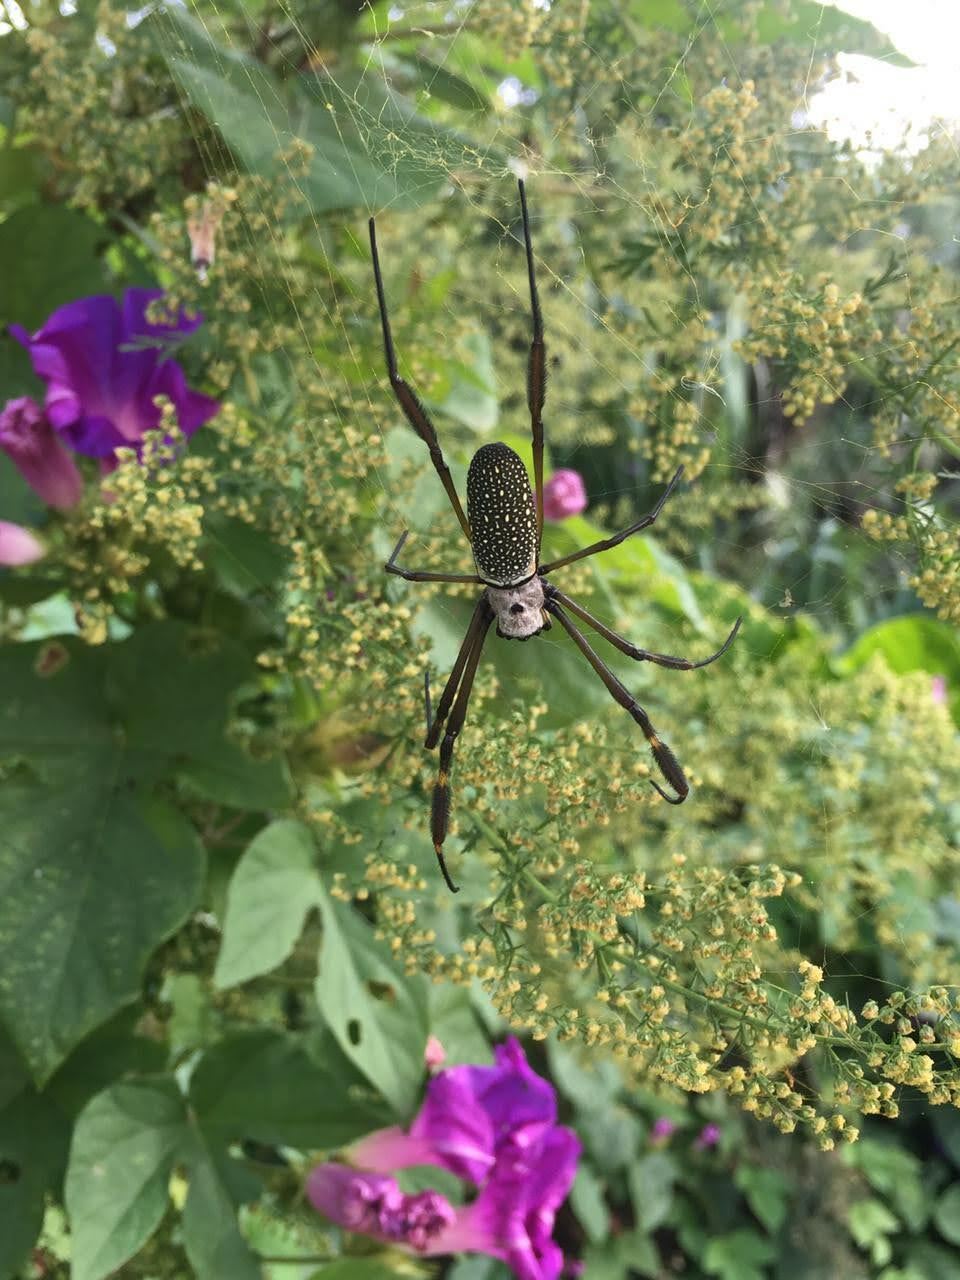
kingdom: Animalia
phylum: Arthropoda
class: Arachnida
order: Araneae
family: Araneidae
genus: Trichonephila
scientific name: Trichonephila clavipes
